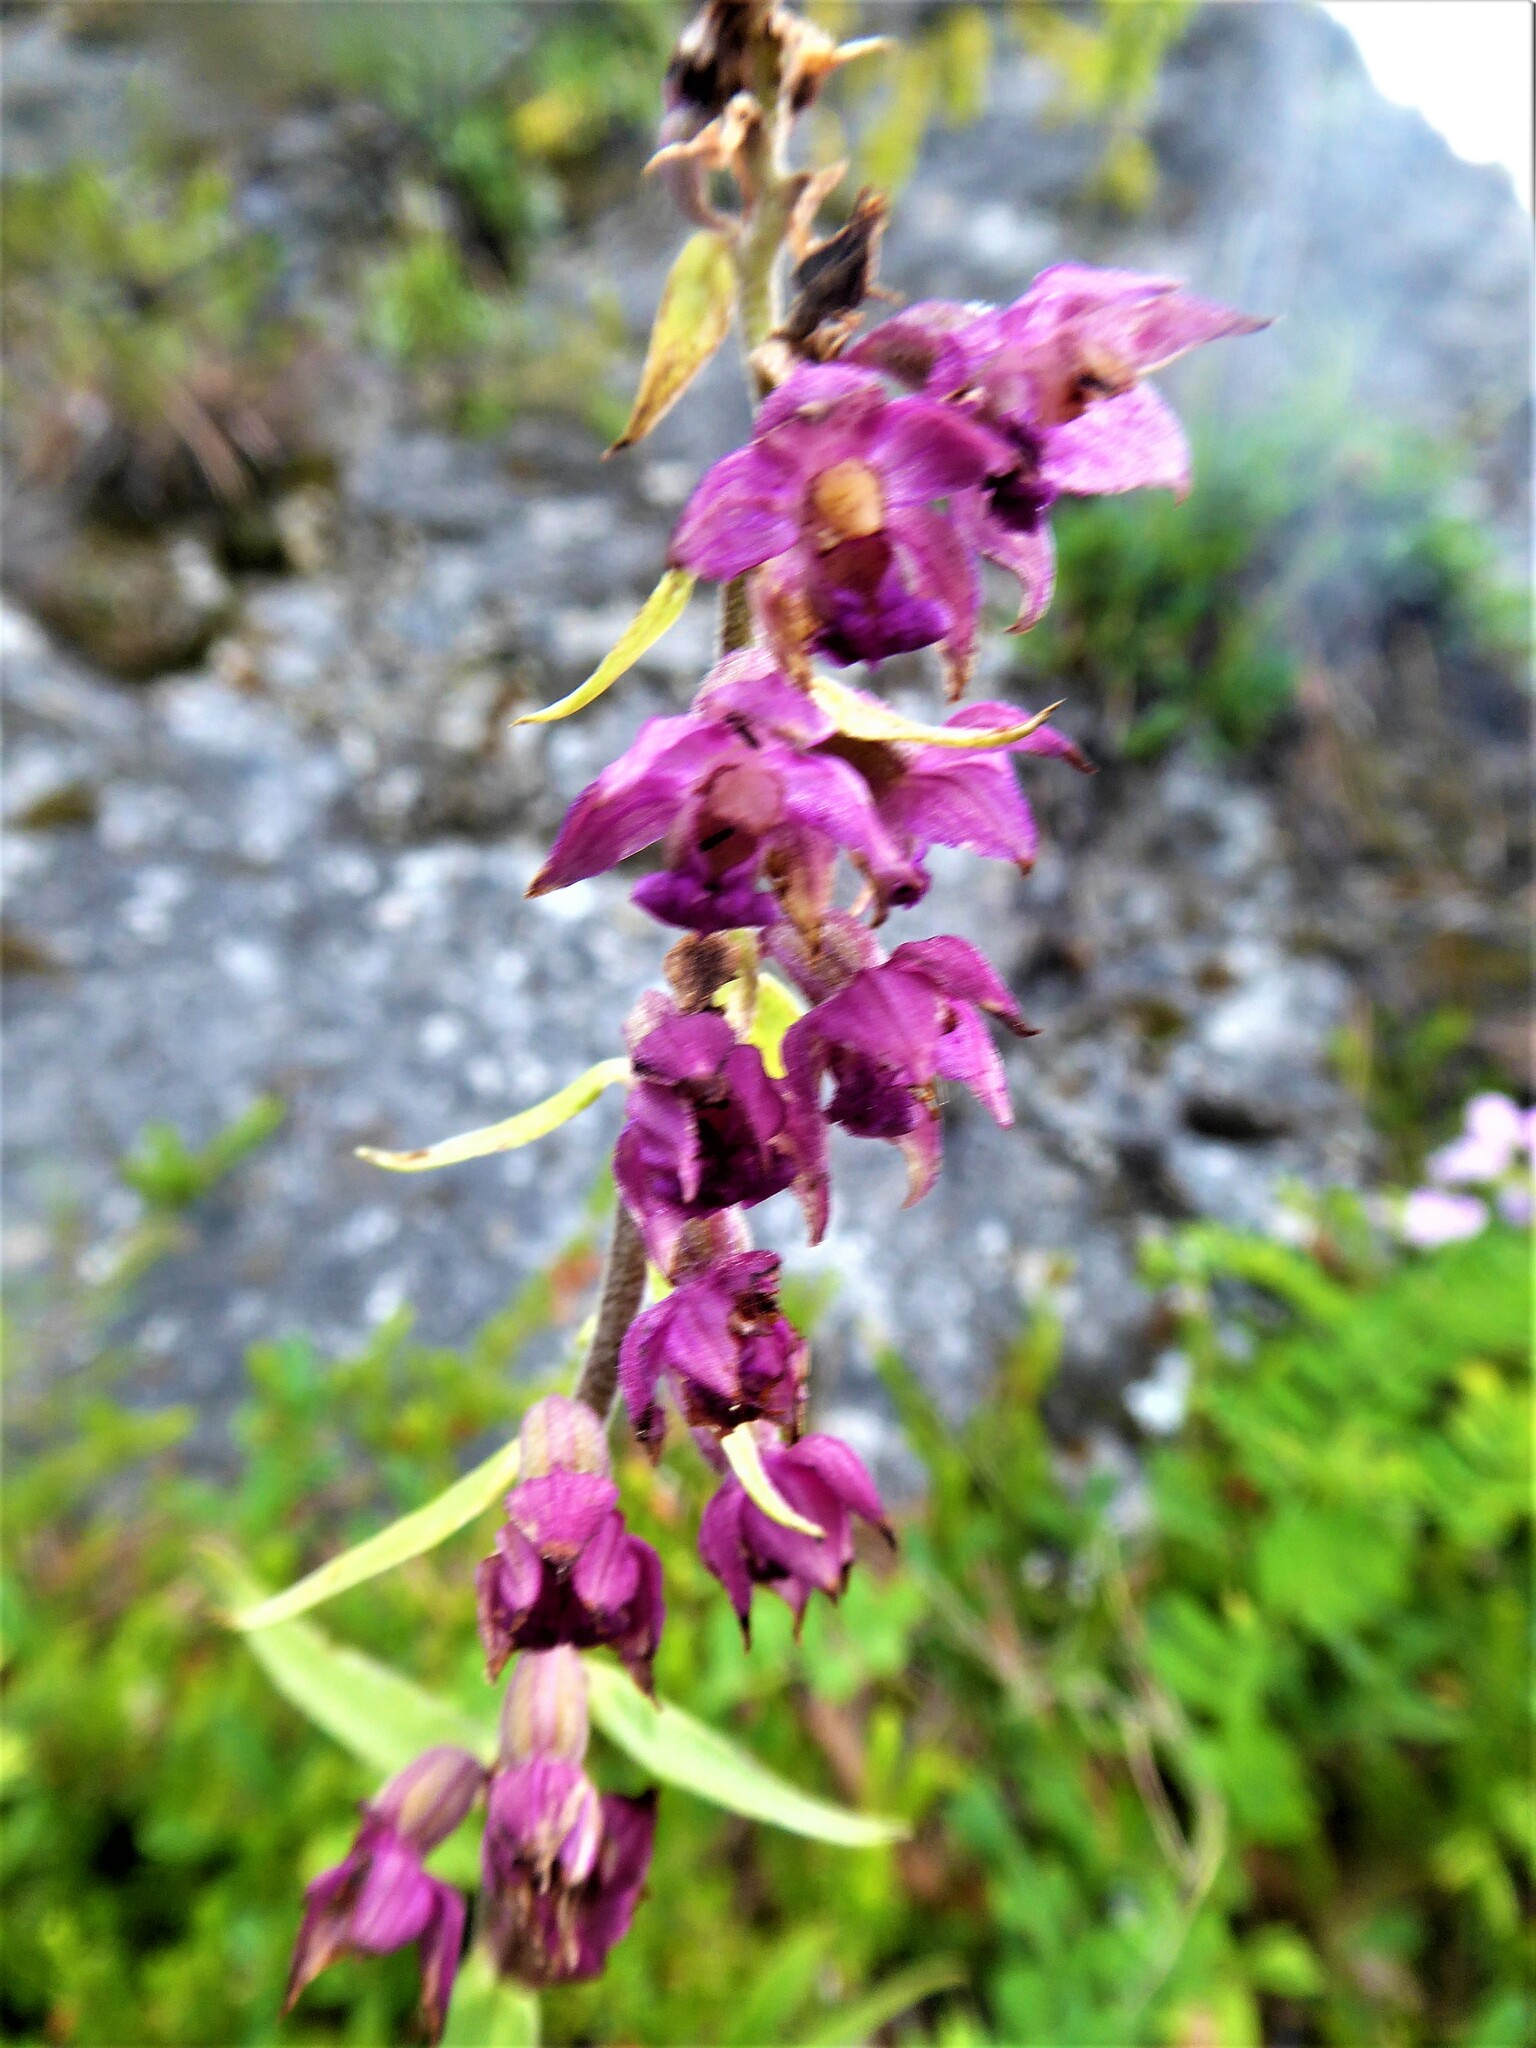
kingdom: Plantae
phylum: Tracheophyta
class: Liliopsida
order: Asparagales
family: Orchidaceae
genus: Epipactis
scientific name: Epipactis atrorubens
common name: Dark-red helleborine
